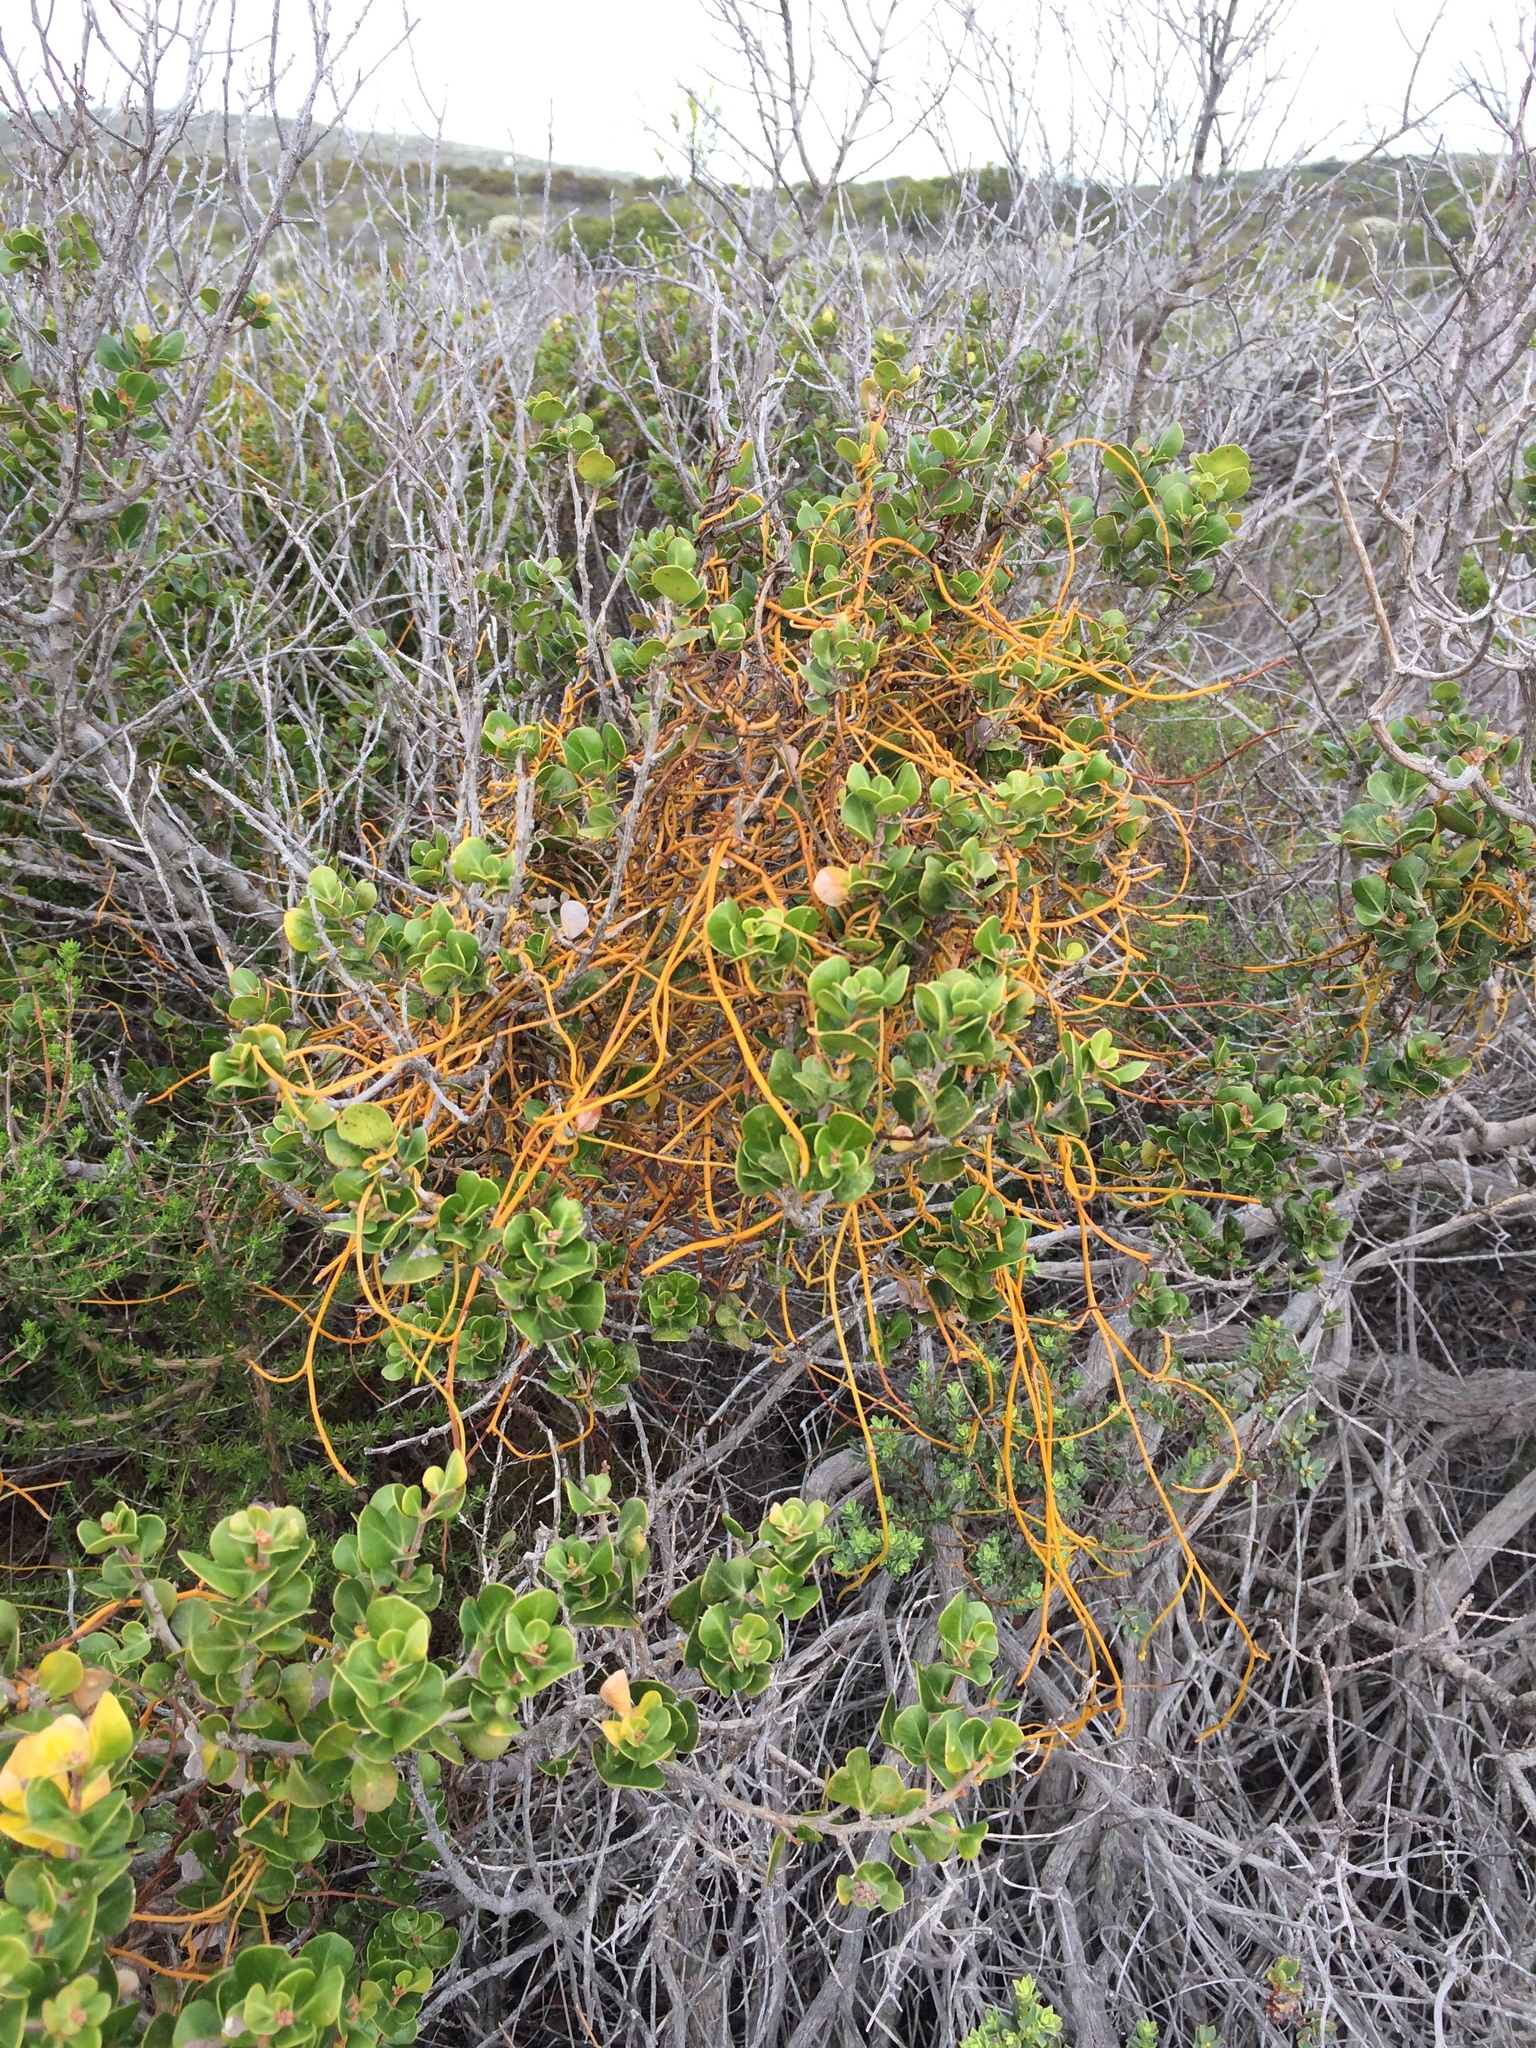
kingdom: Plantae
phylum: Tracheophyta
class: Magnoliopsida
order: Laurales
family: Lauraceae
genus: Cassytha
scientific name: Cassytha ciliolata
